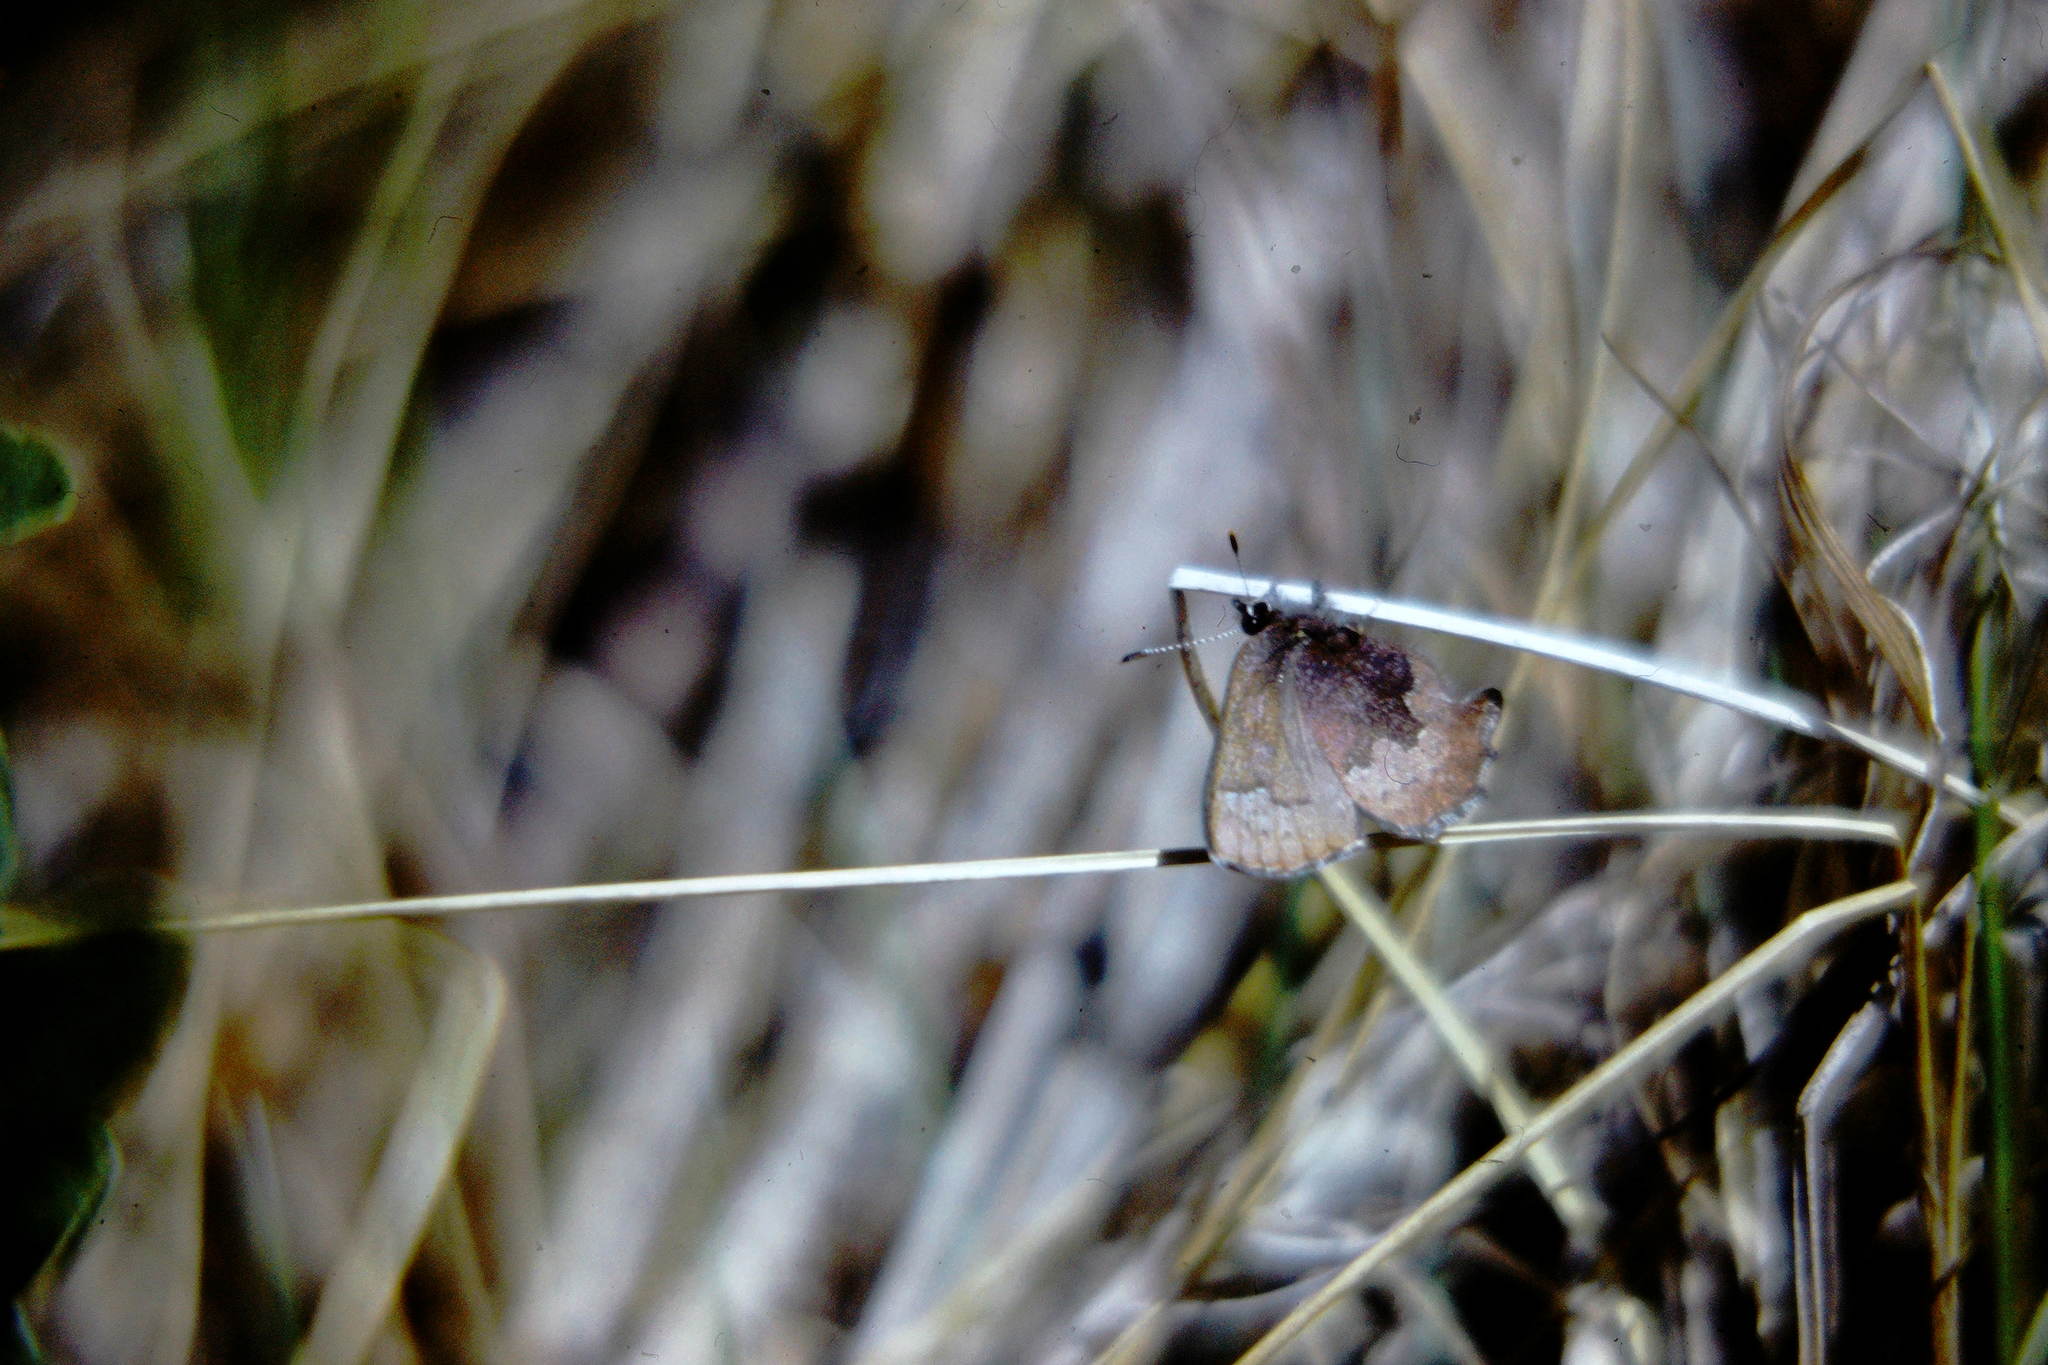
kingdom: Animalia
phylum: Arthropoda
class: Insecta
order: Lepidoptera
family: Lycaenidae
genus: Incisalia
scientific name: Incisalia irioides
